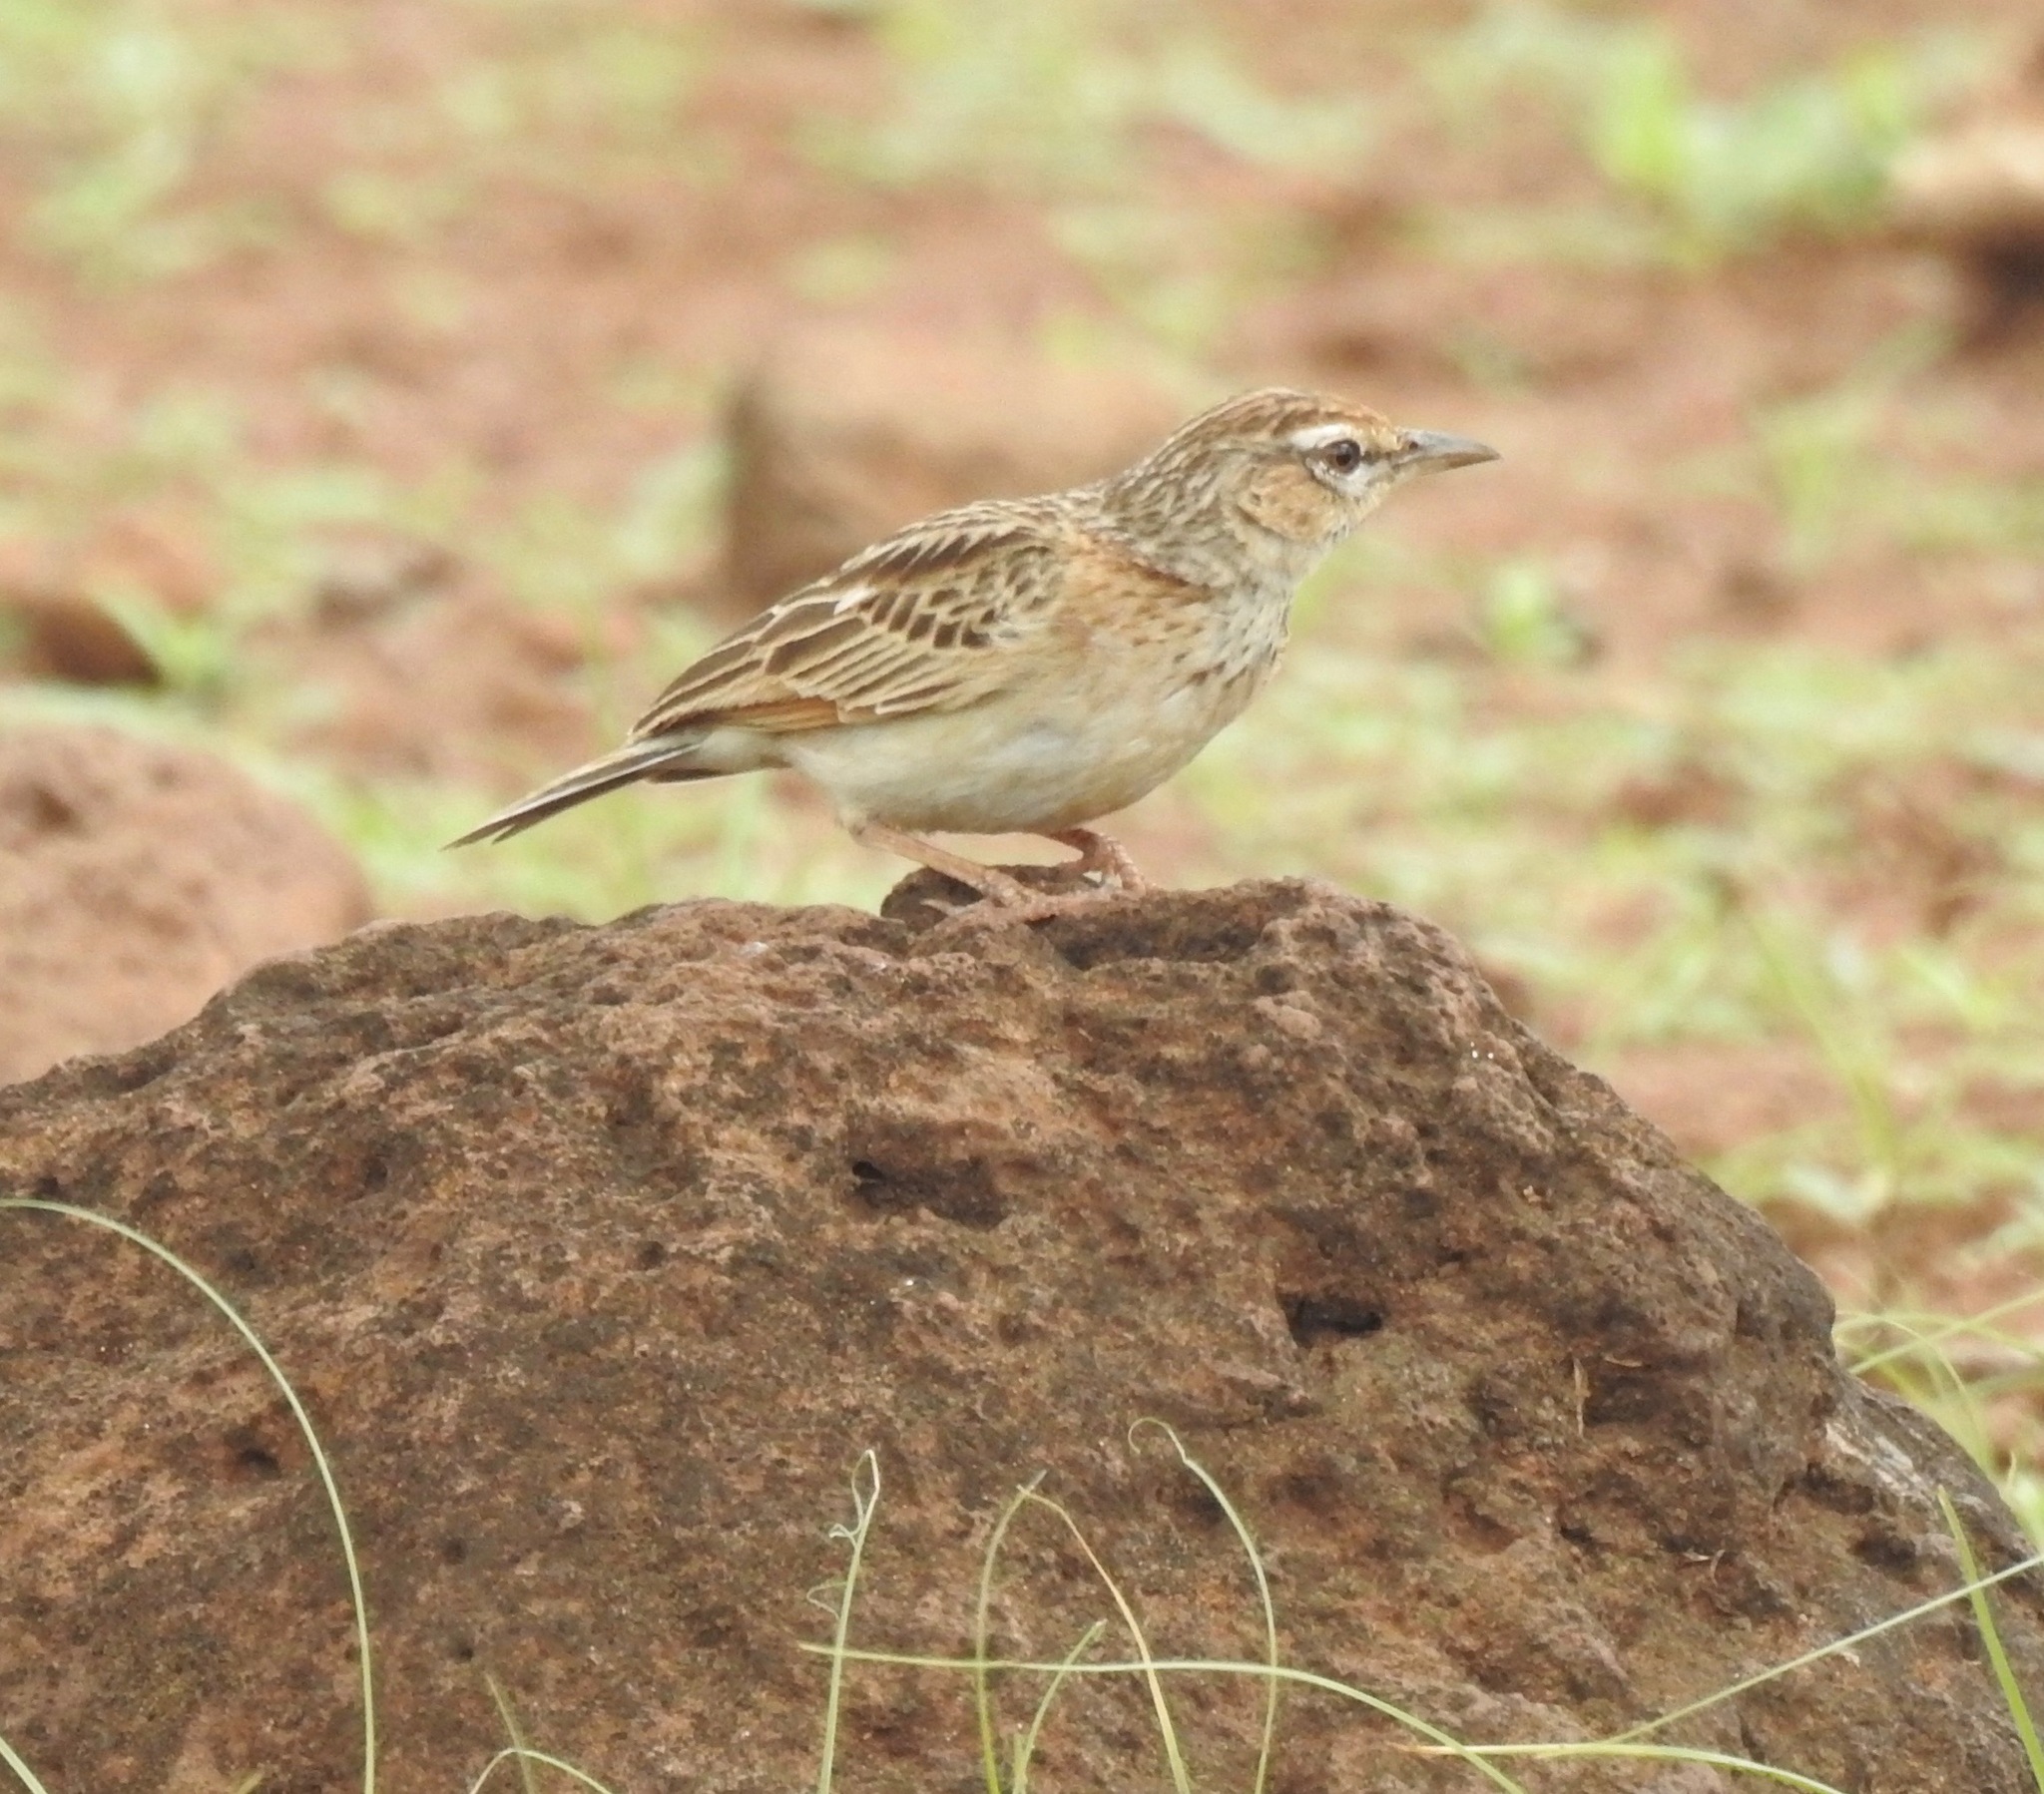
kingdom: Animalia
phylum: Chordata
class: Aves
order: Passeriformes
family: Alaudidae
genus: Calendulauda
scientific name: Calendulauda africanoides
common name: Fawn-colored lark
